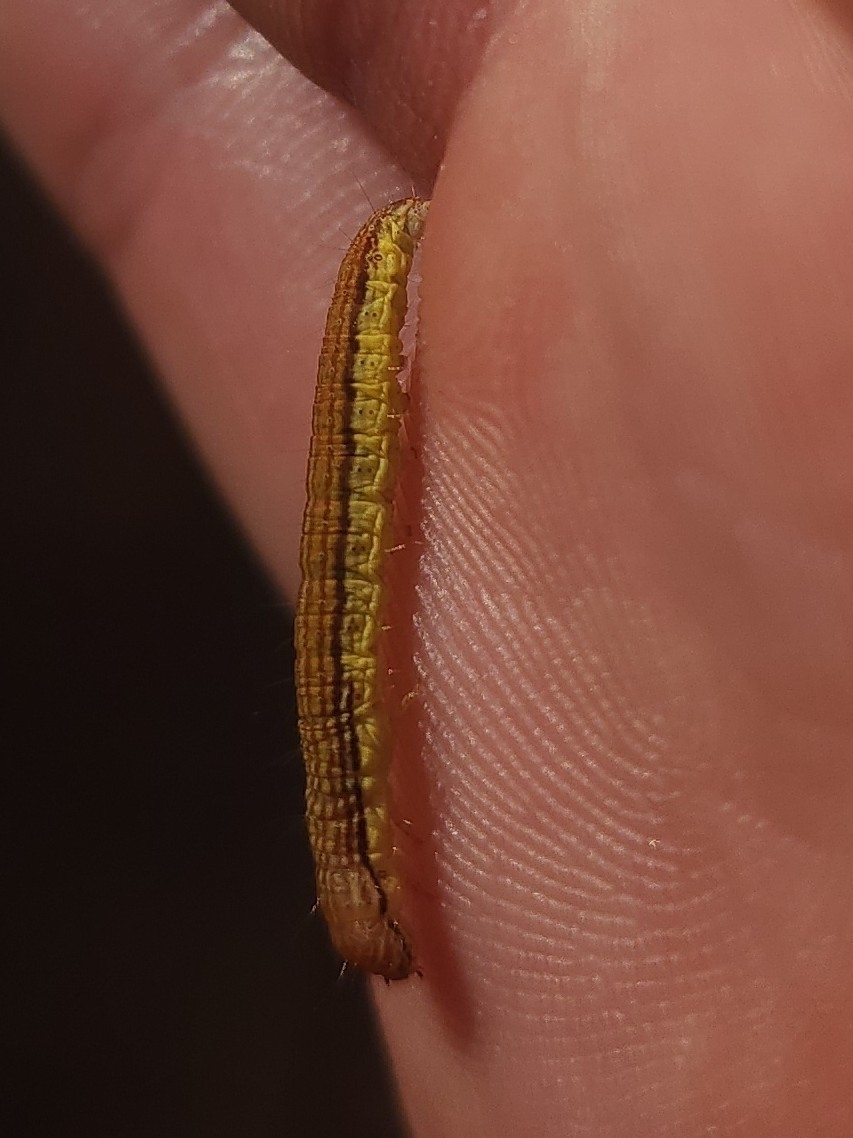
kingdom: Animalia
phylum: Arthropoda
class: Insecta
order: Lepidoptera
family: Pyralidae
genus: Oneida
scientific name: Oneida lunulalis
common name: Orange-tufted oneida moth
